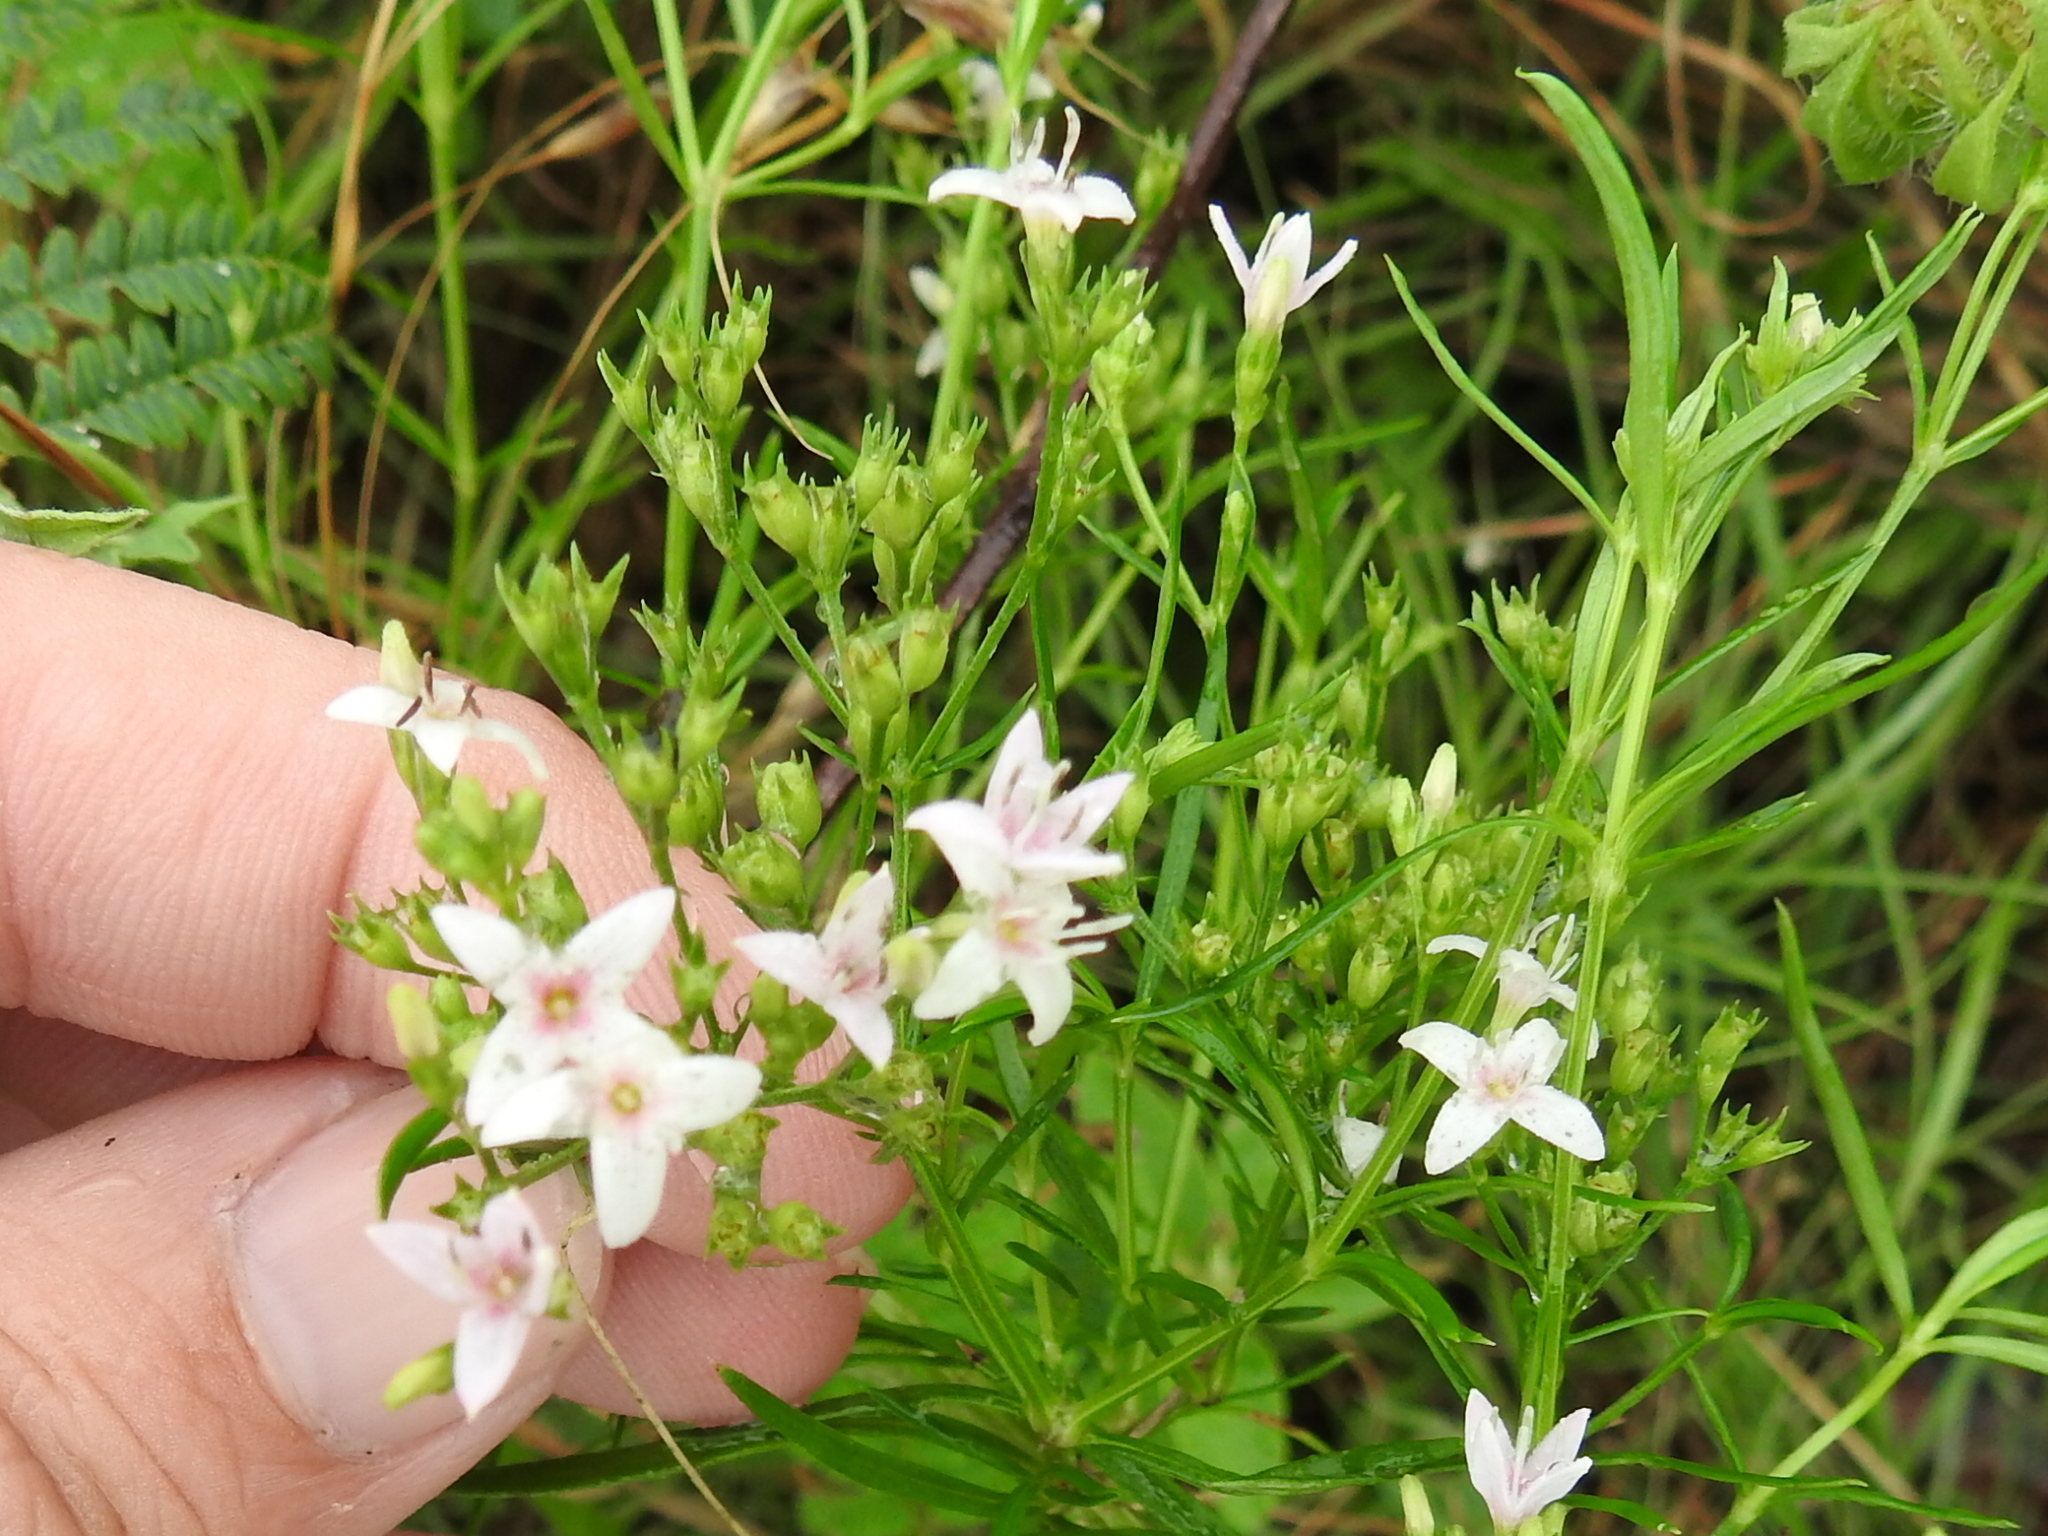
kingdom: Plantae
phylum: Tracheophyta
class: Magnoliopsida
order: Gentianales
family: Rubiaceae
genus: Stenaria
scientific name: Stenaria nigricans
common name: Diamondflowers
